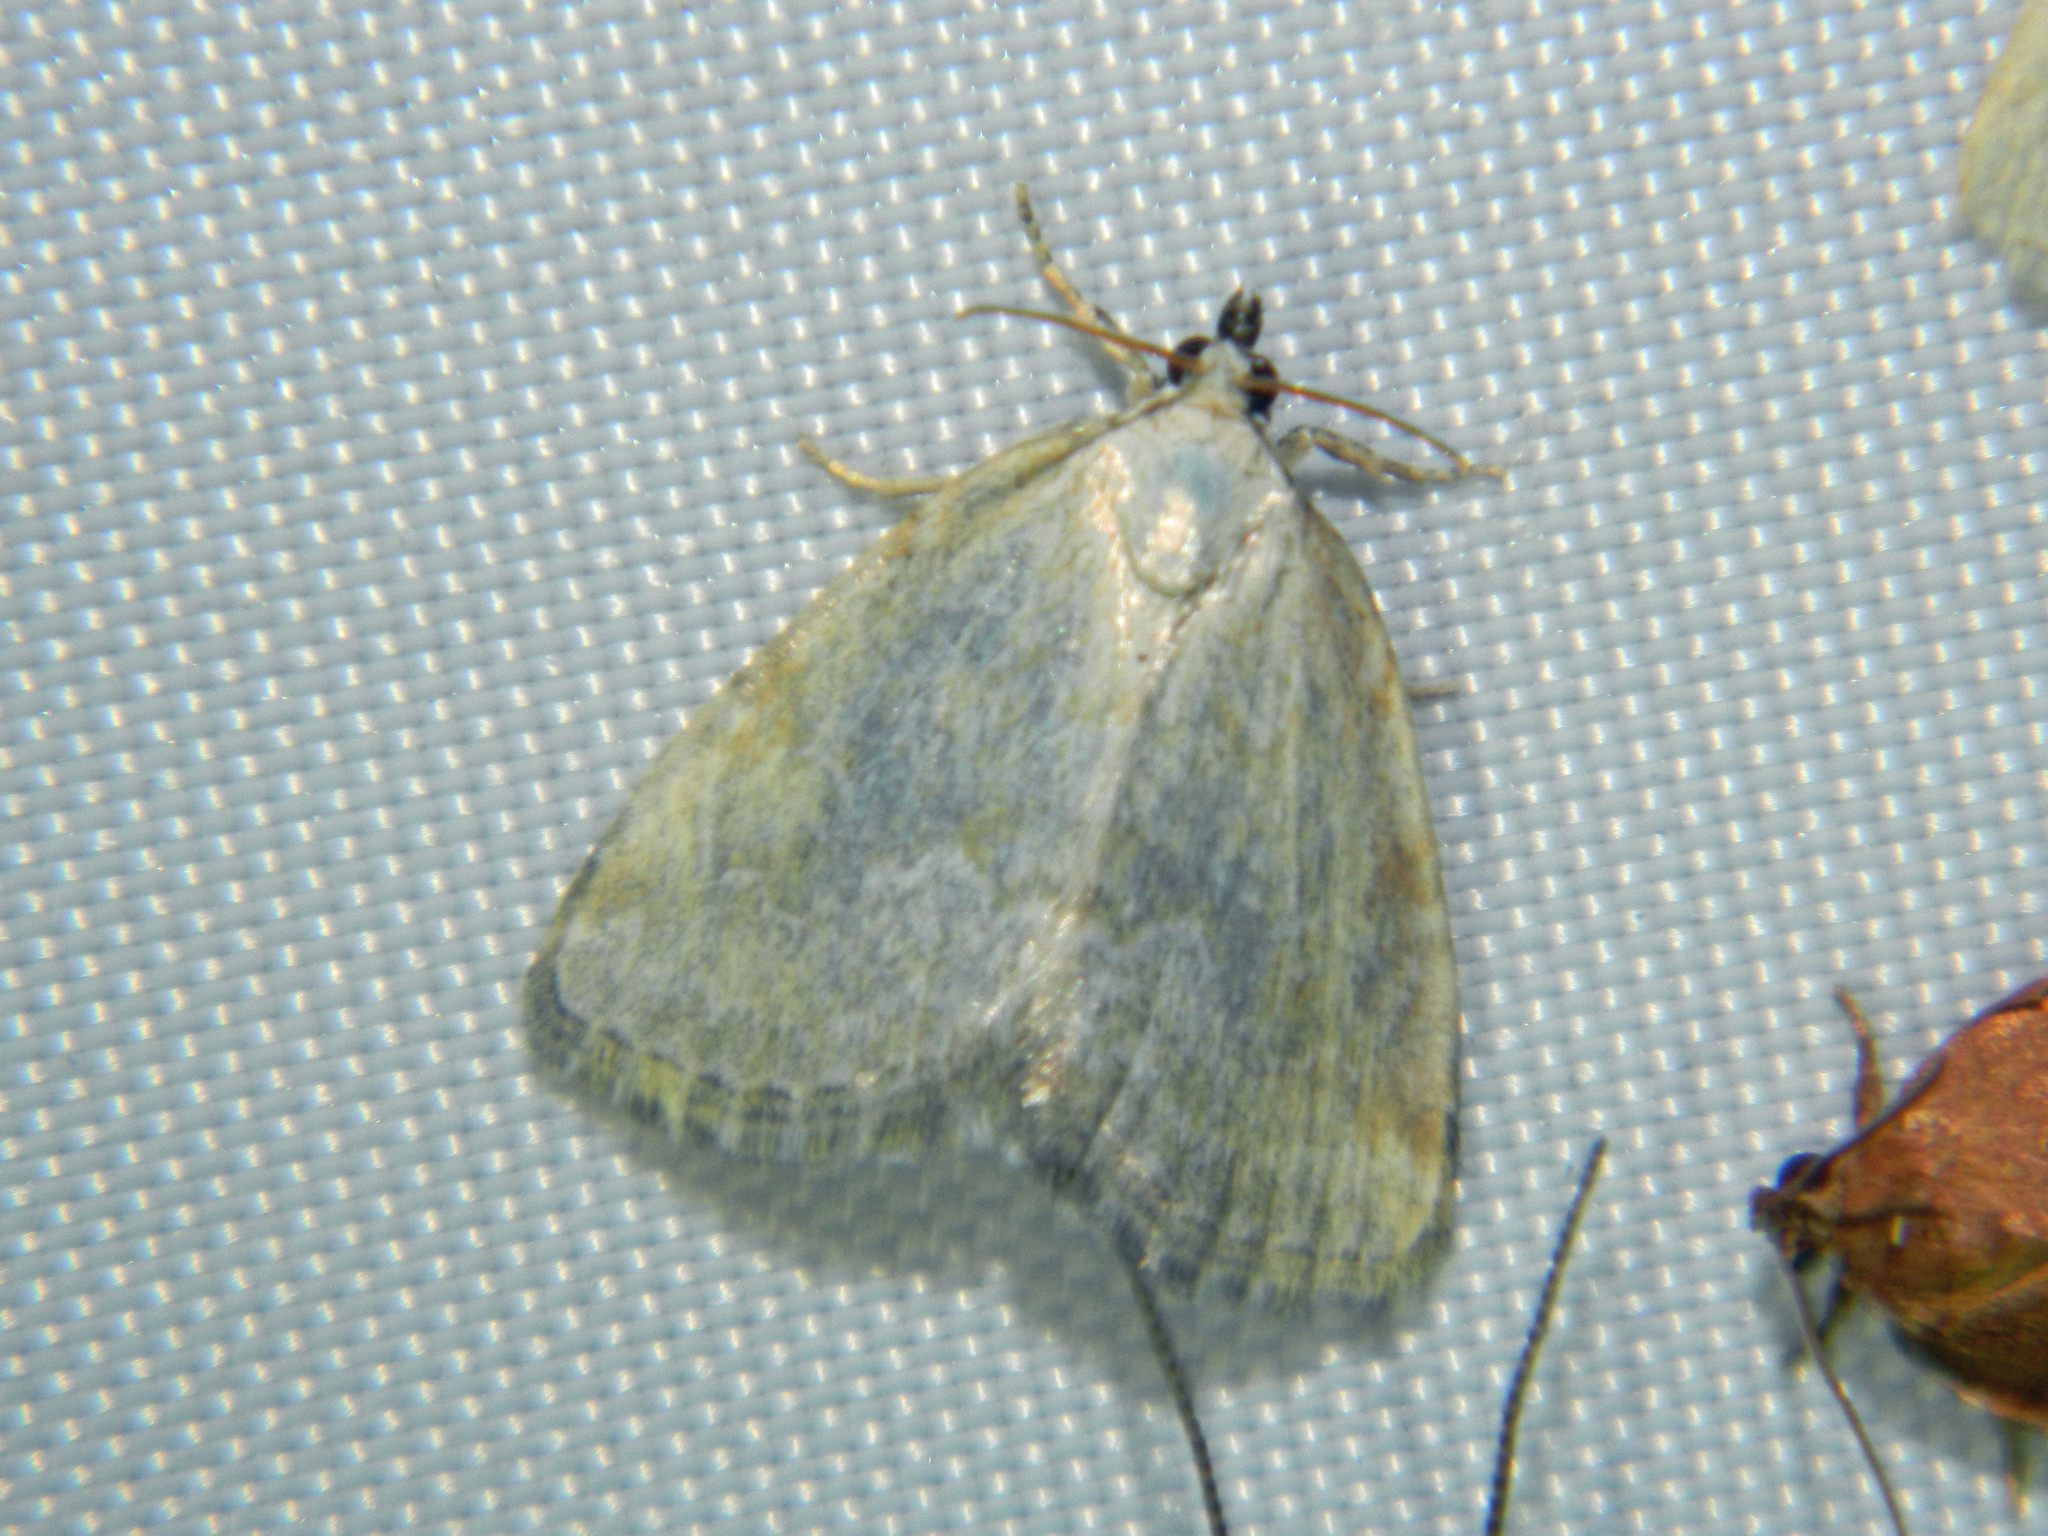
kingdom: Animalia
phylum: Arthropoda
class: Insecta
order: Lepidoptera
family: Noctuidae
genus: Protodeltote
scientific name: Protodeltote albidula
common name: Pale glyph
